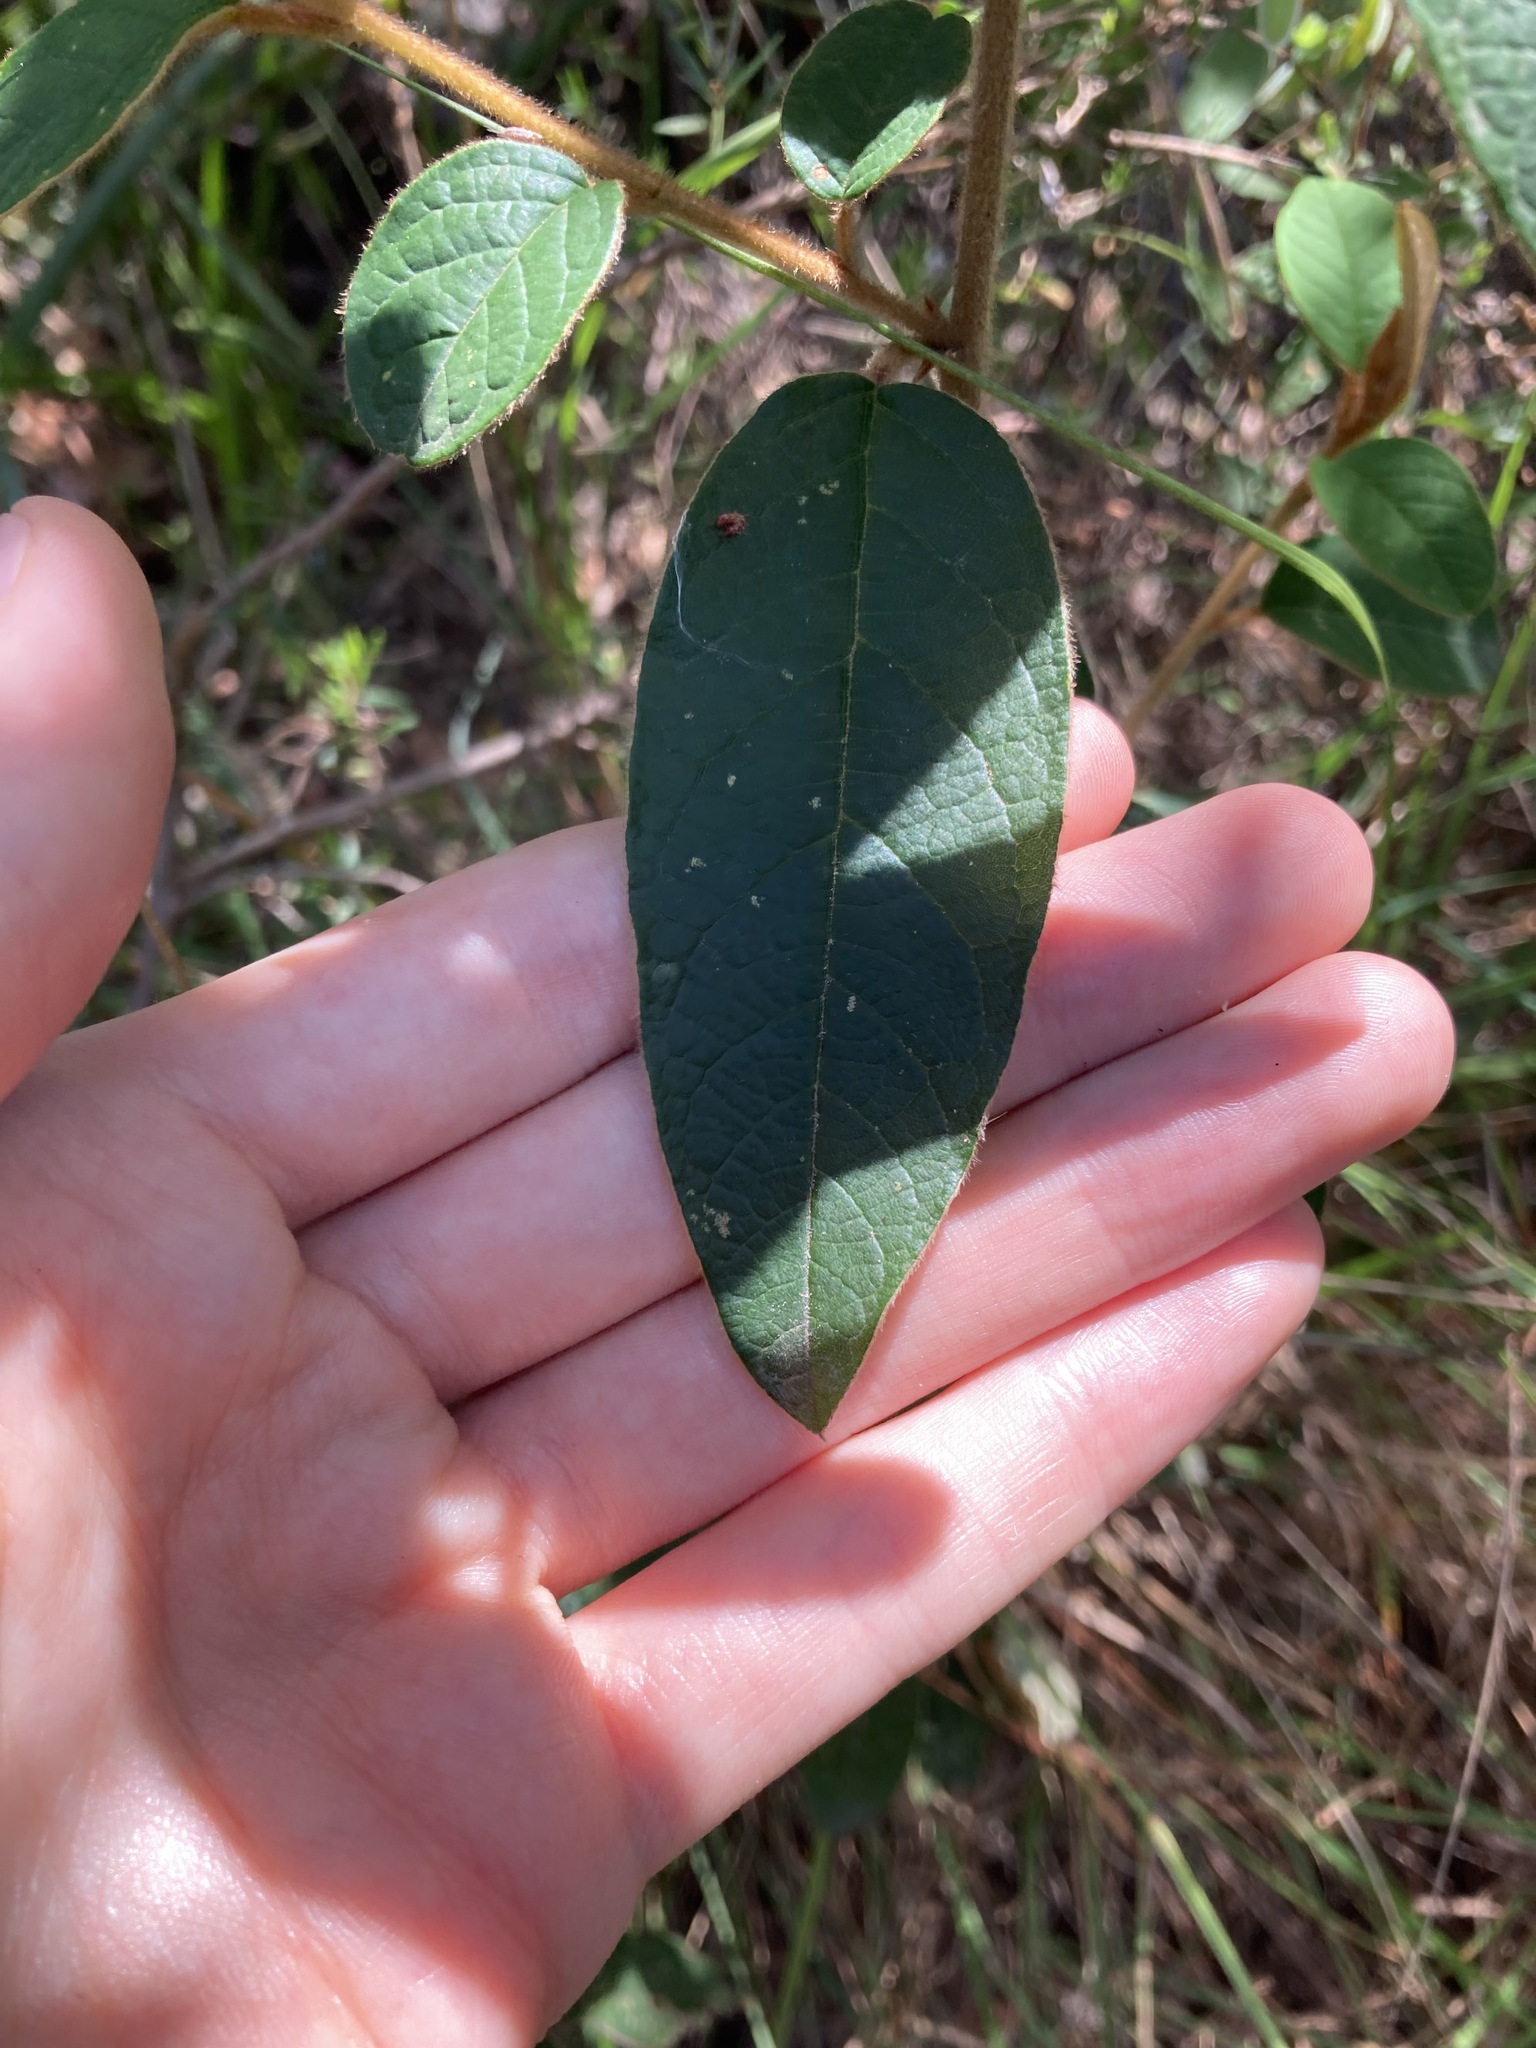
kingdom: Plantae
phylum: Tracheophyta
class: Magnoliopsida
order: Rosales
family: Rhamnaceae
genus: Pomaderris
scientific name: Pomaderris wendlandiana
